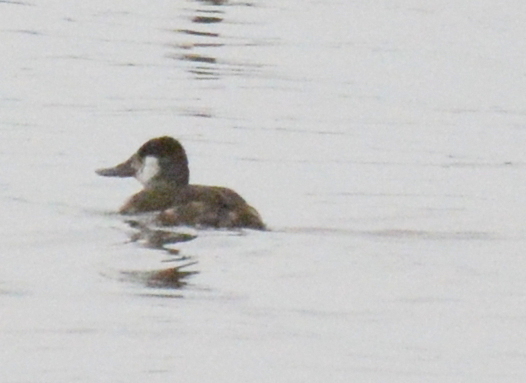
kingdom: Animalia
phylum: Chordata
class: Aves
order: Anseriformes
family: Anatidae
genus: Oxyura
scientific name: Oxyura jamaicensis
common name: Ruddy duck
